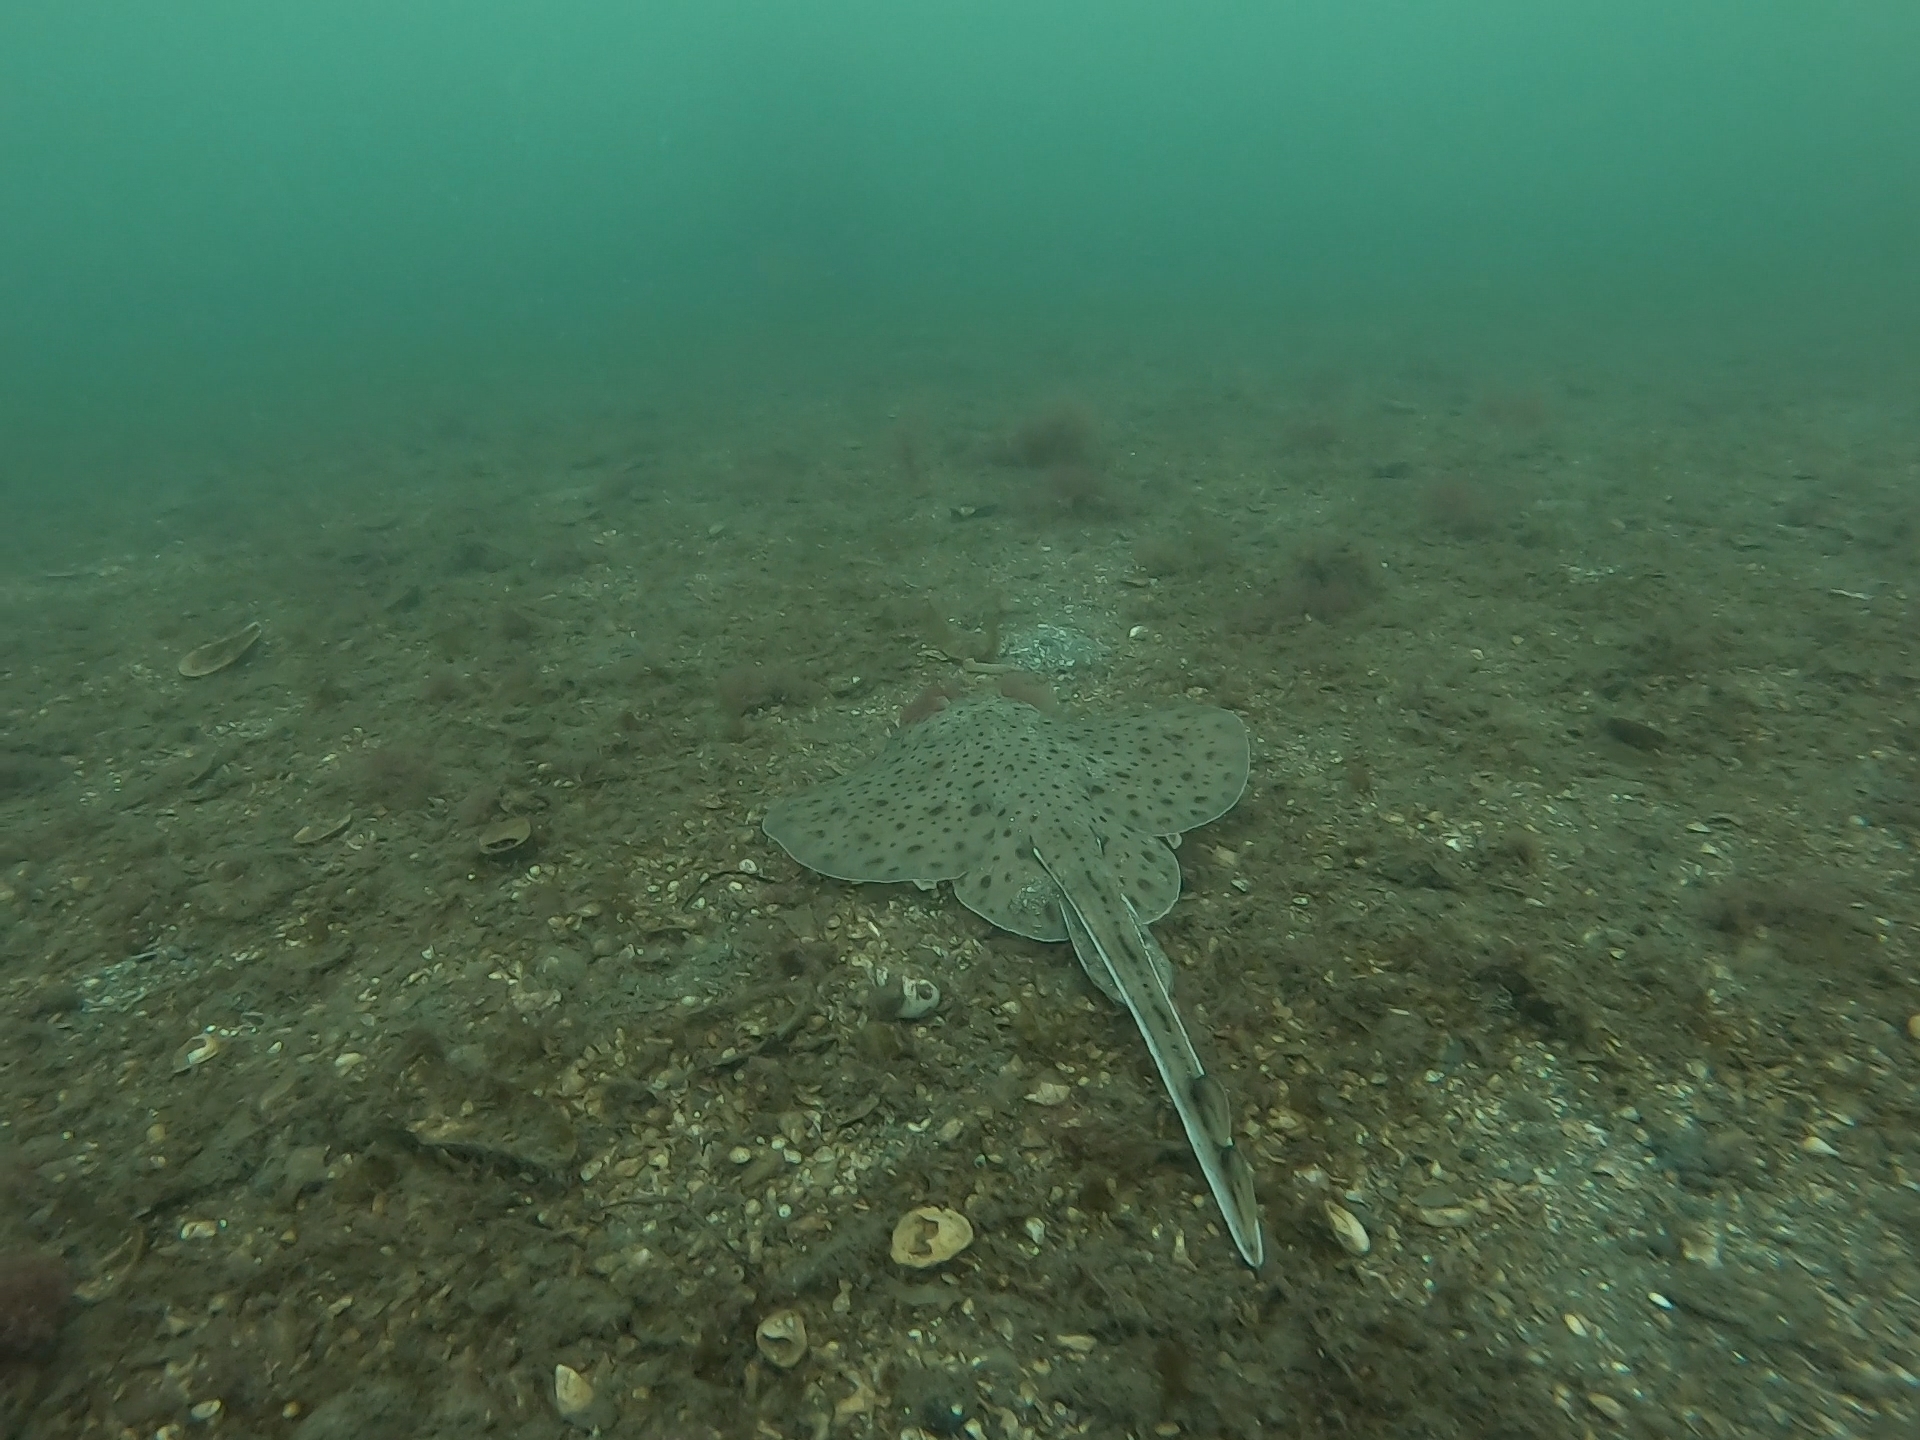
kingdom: Animalia
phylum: Chordata
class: Elasmobranchii
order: Rajiformes
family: Rajidae
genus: Leucoraja
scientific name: Leucoraja erinacea
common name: Little skate
